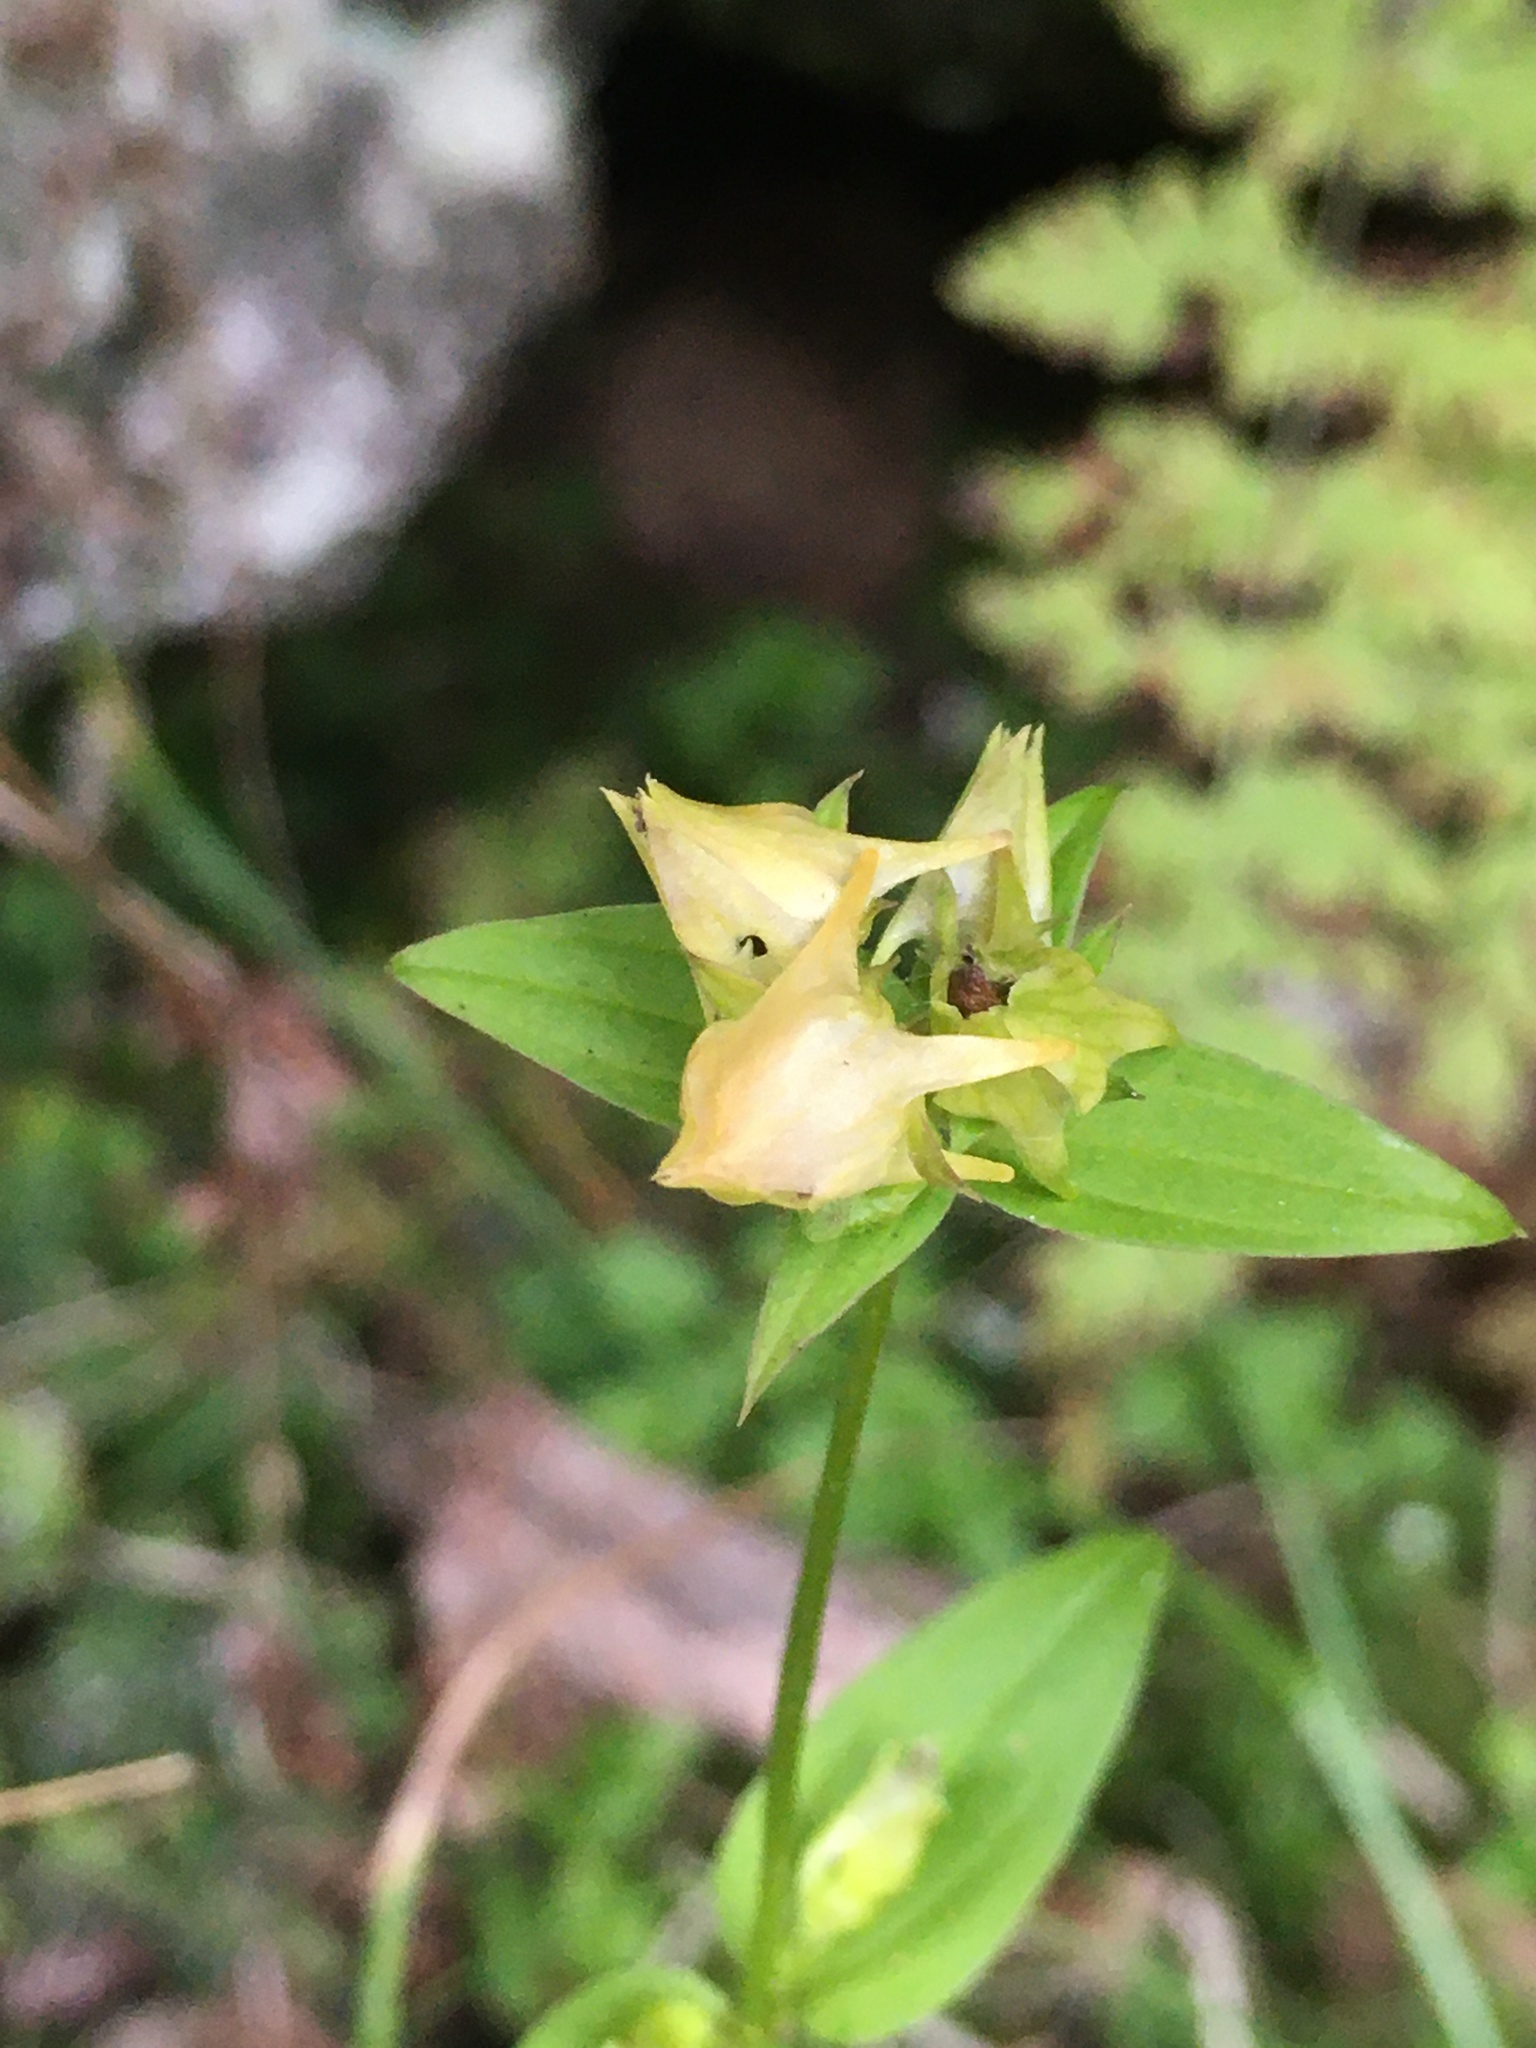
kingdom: Plantae
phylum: Tracheophyta
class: Magnoliopsida
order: Gentianales
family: Gentianaceae
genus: Halenia
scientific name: Halenia deflexa
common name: American spurred gentian
